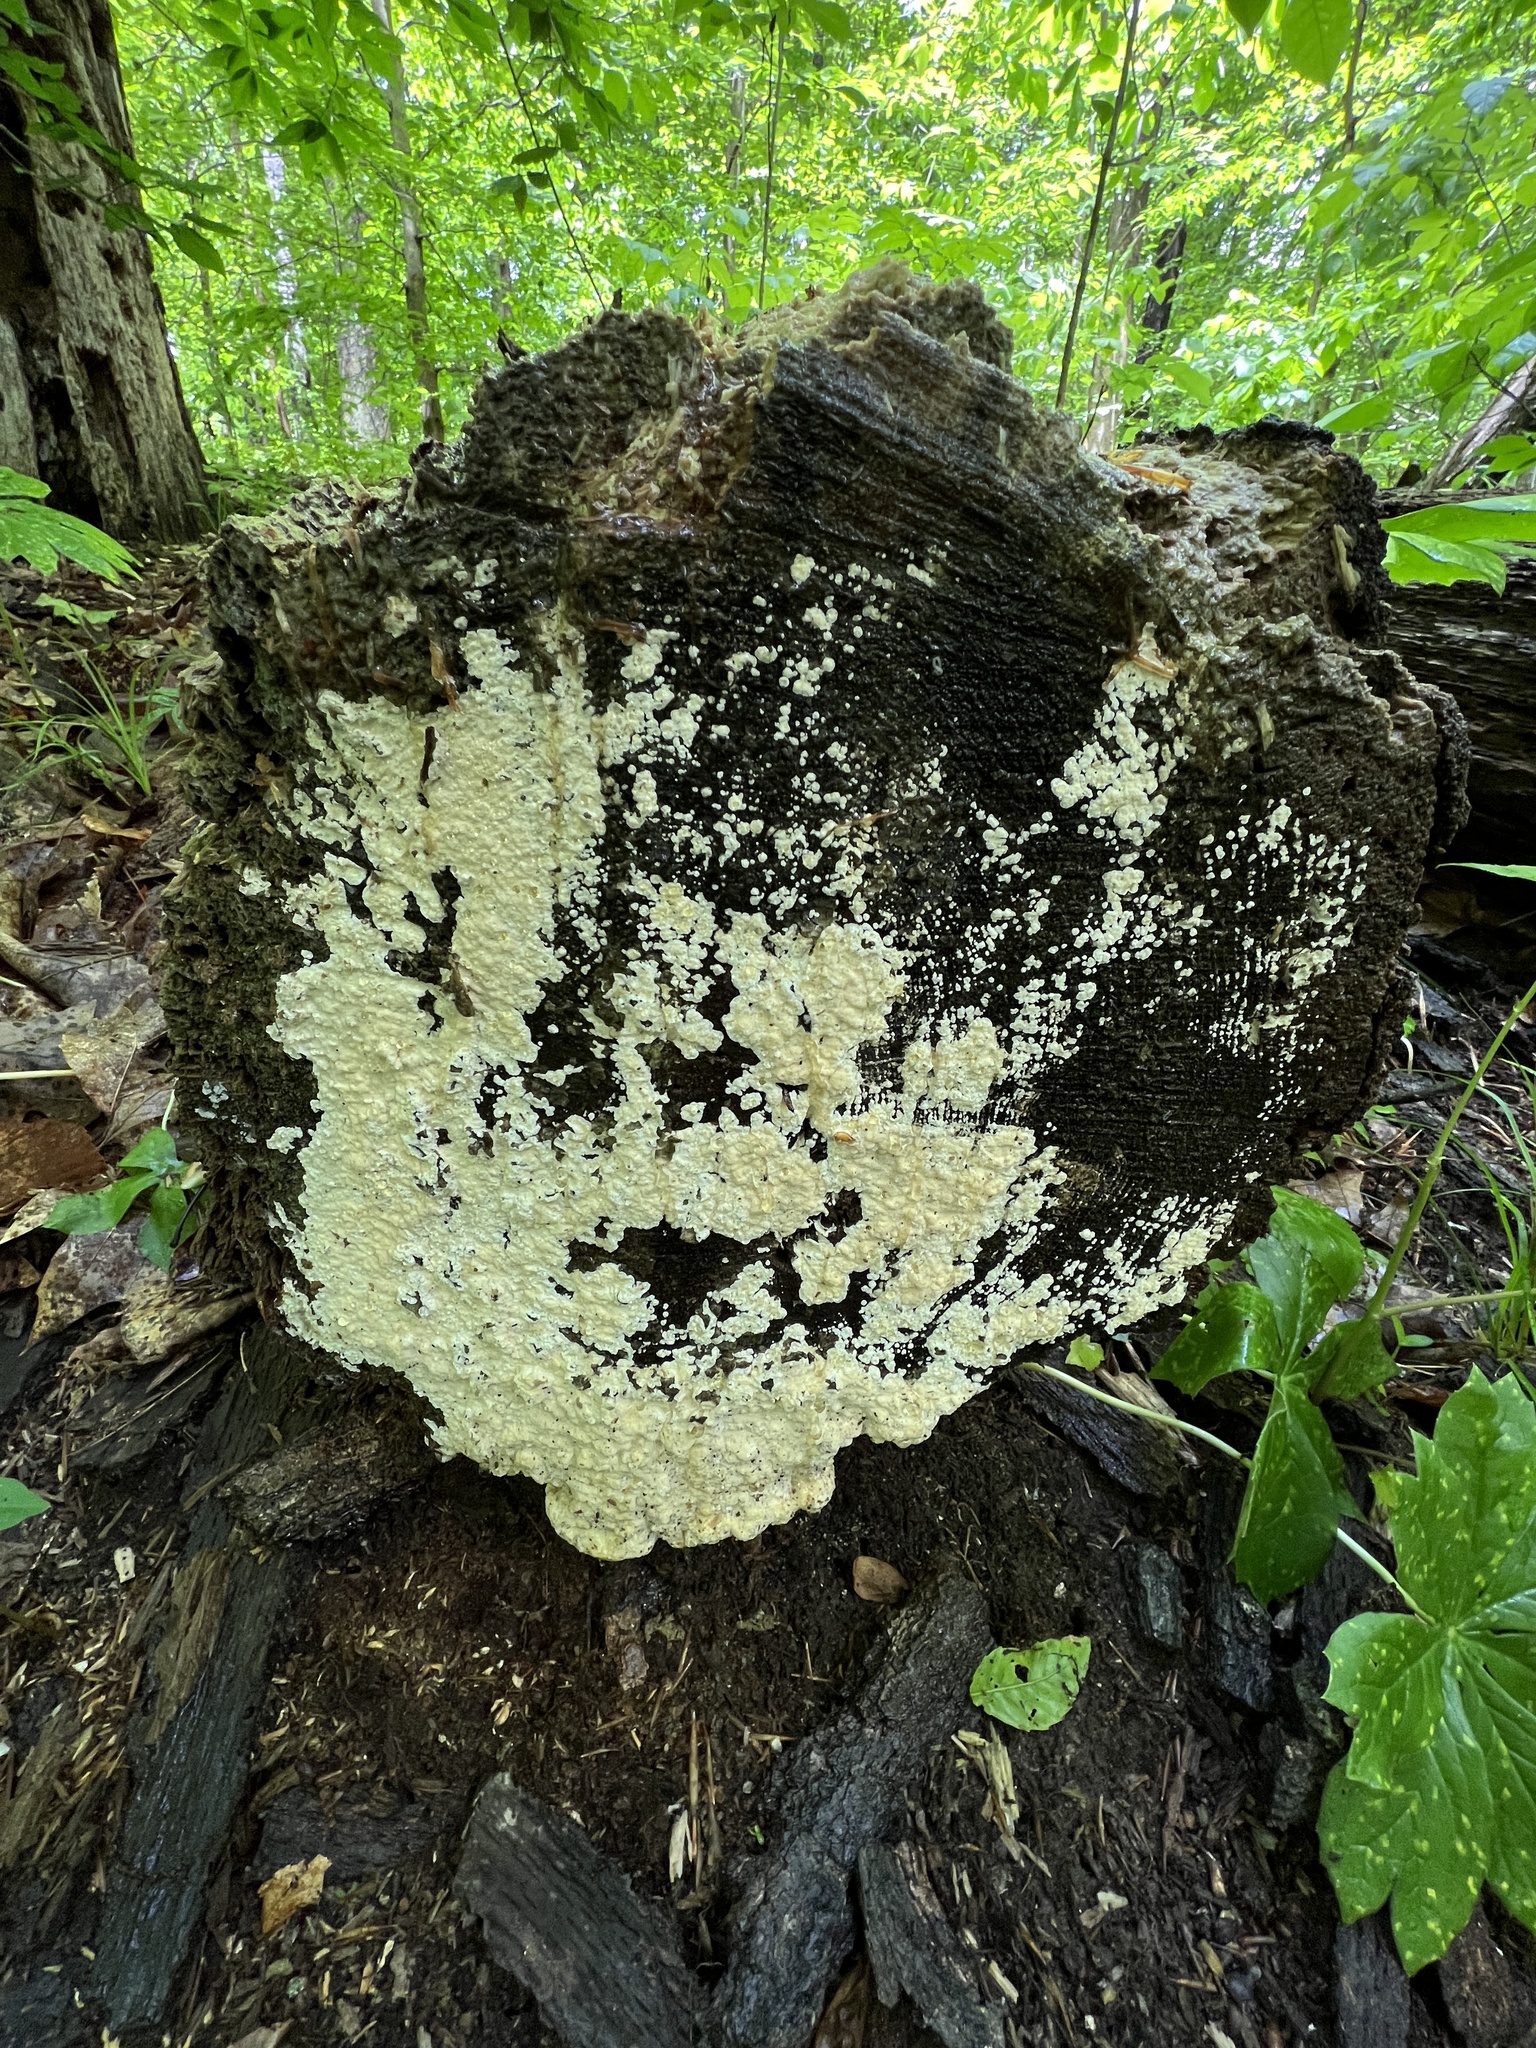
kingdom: Fungi
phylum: Basidiomycota
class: Agaricomycetes
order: Polyporales
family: Polyporaceae
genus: Yuchengia
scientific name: Yuchengia narymica
